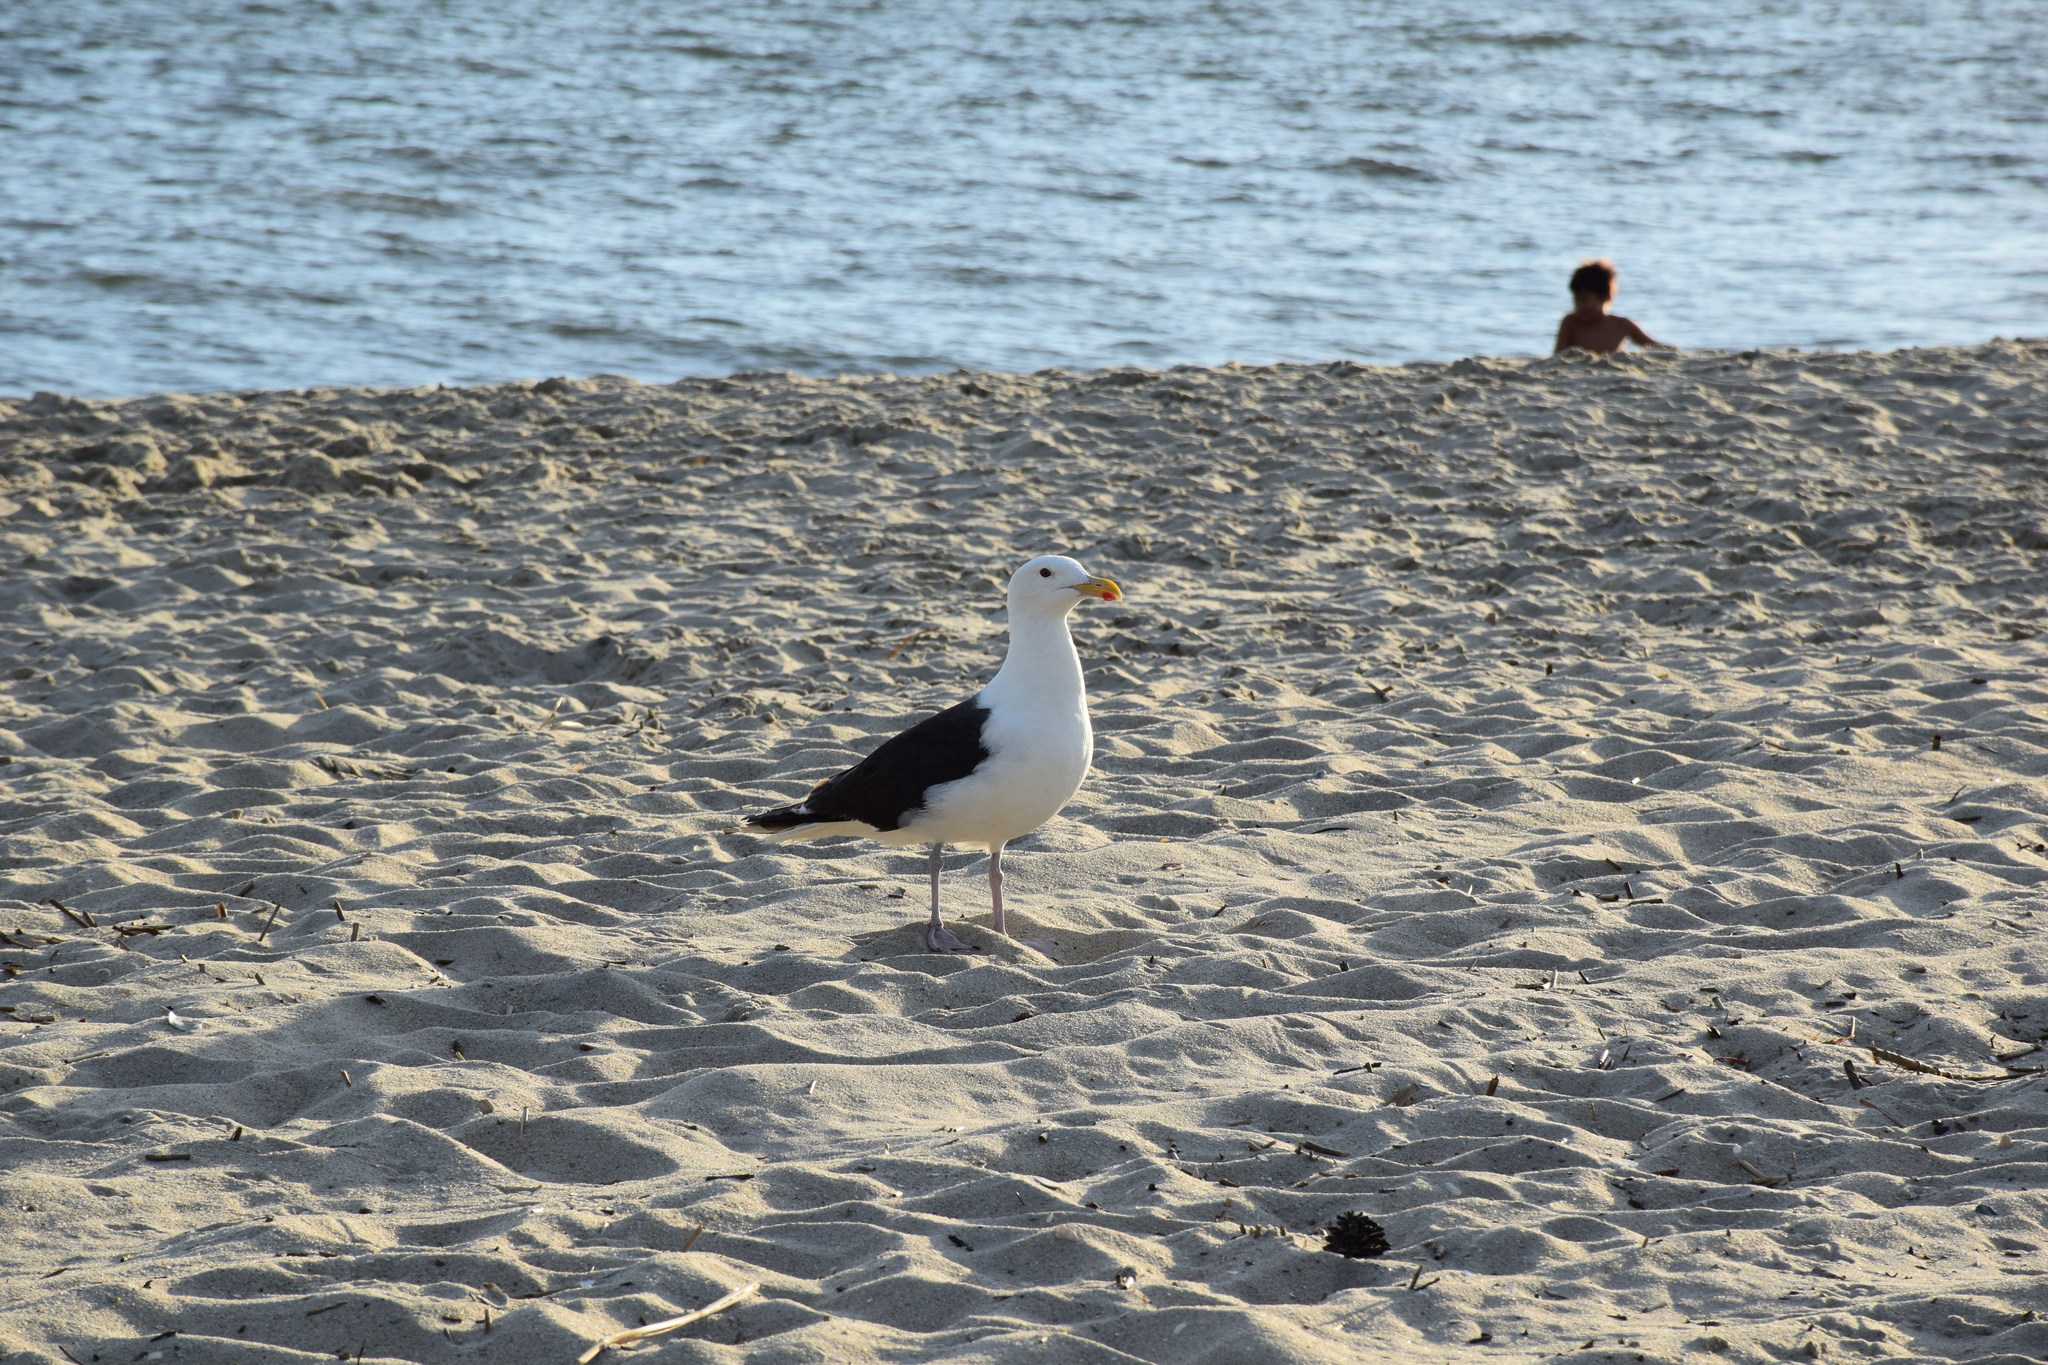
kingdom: Animalia
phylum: Chordata
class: Aves
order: Charadriiformes
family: Laridae
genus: Larus
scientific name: Larus marinus
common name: Great black-backed gull
